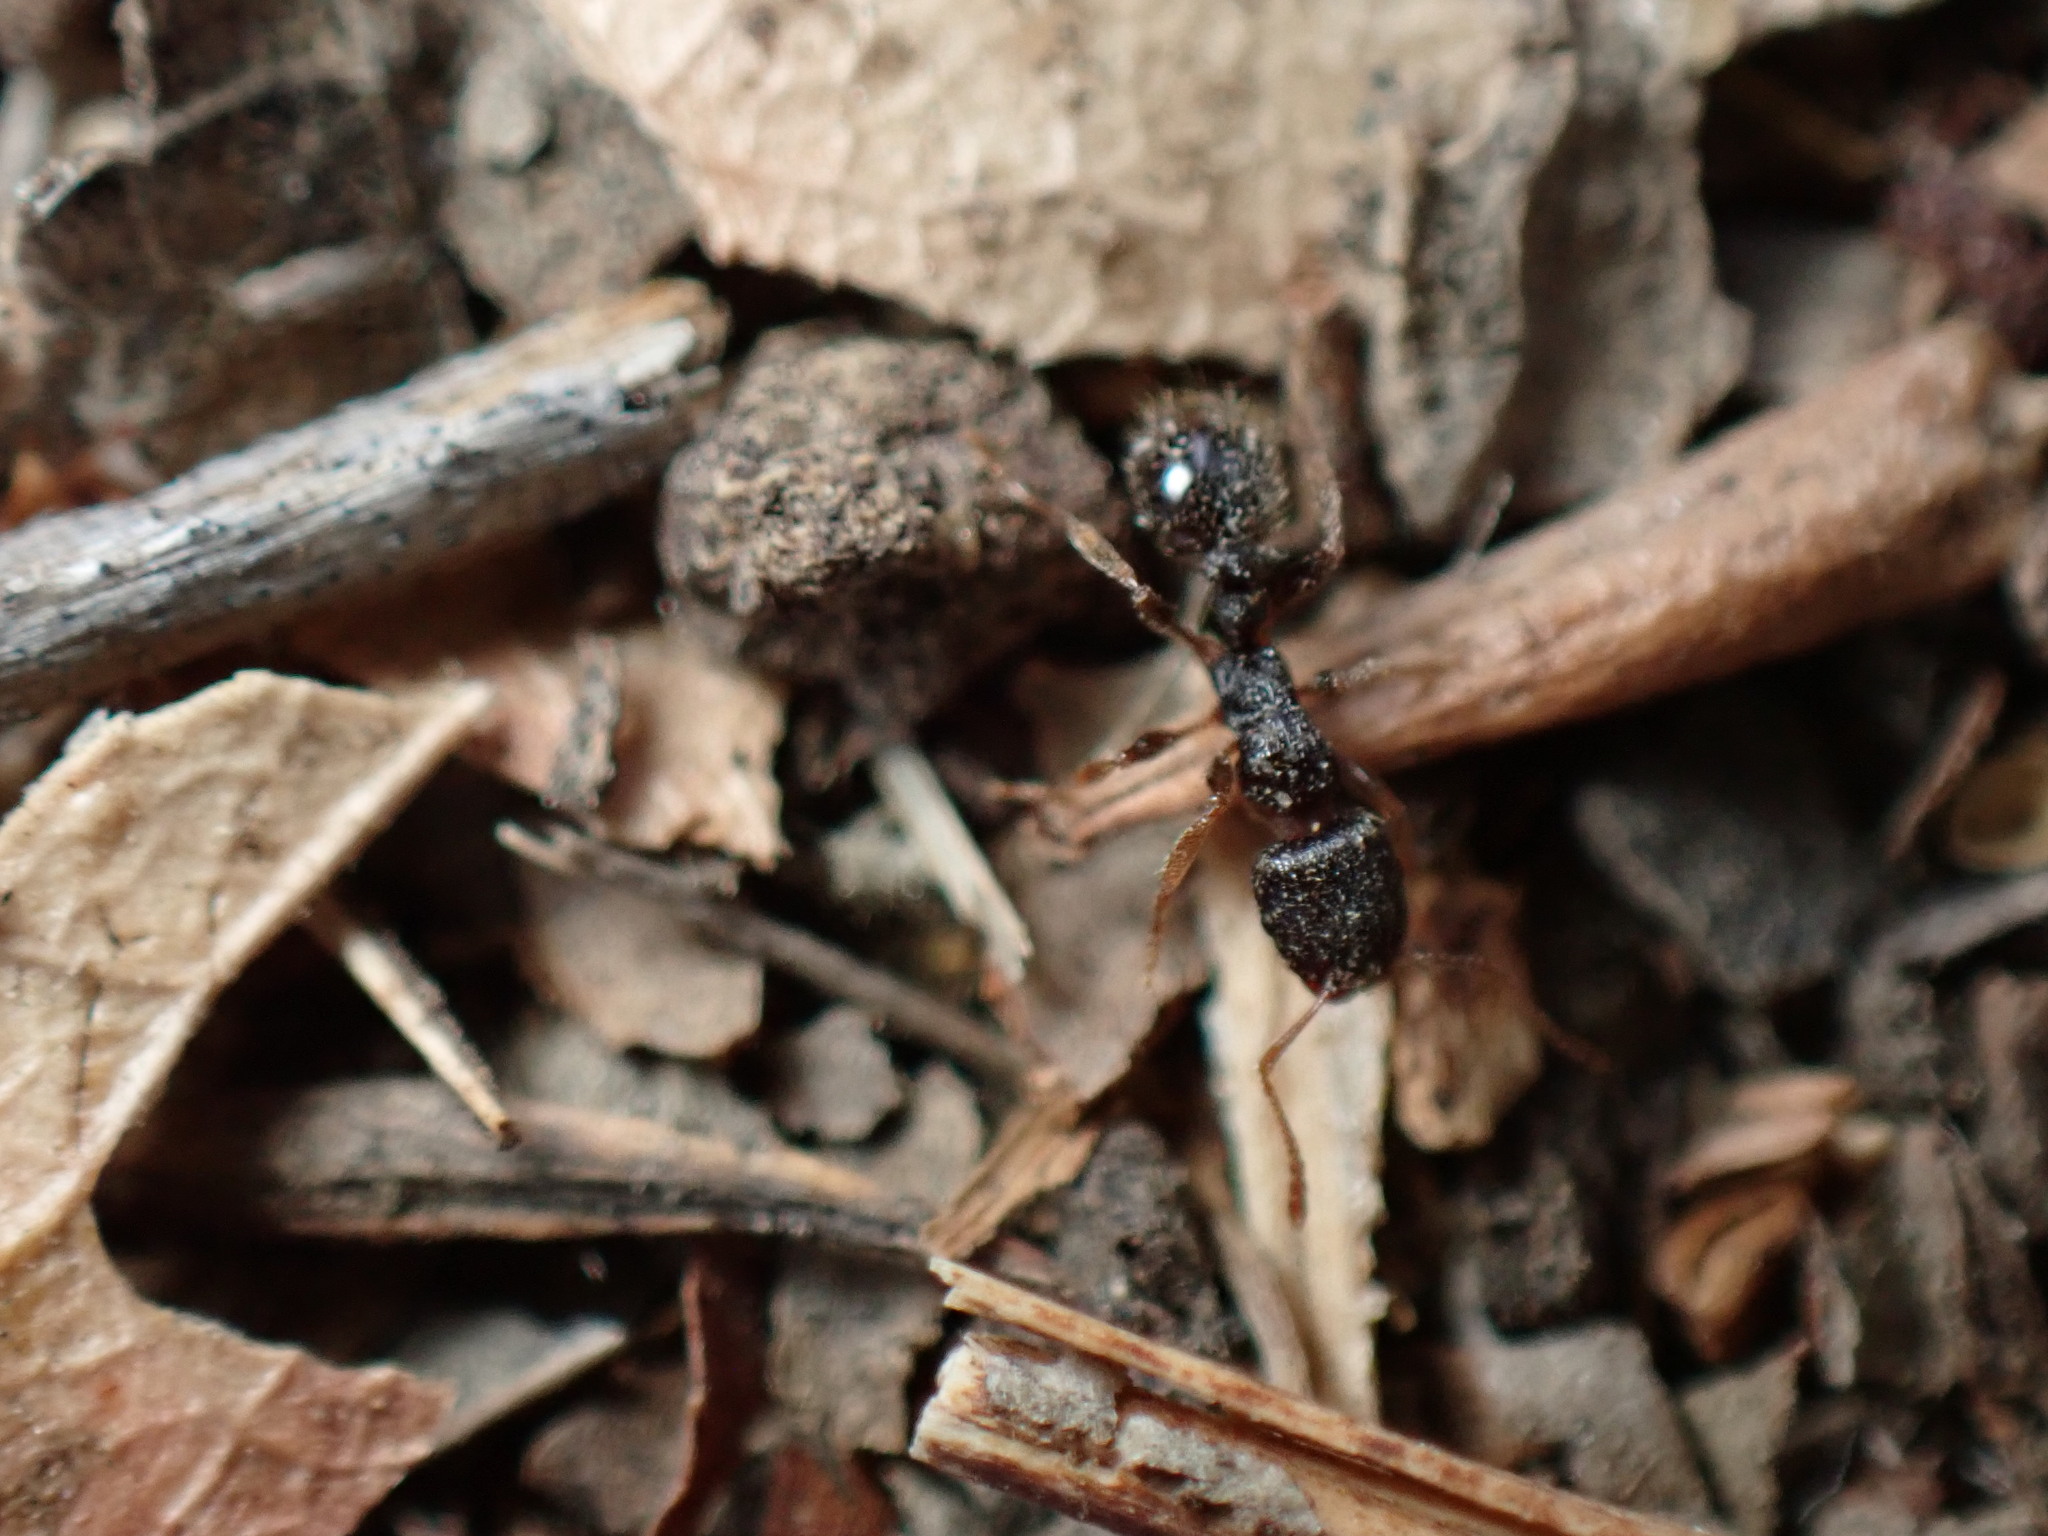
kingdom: Animalia
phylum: Arthropoda
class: Insecta
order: Hymenoptera
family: Formicidae
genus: Tetramorium
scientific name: Tetramorium immigrans
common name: Pavement ant
